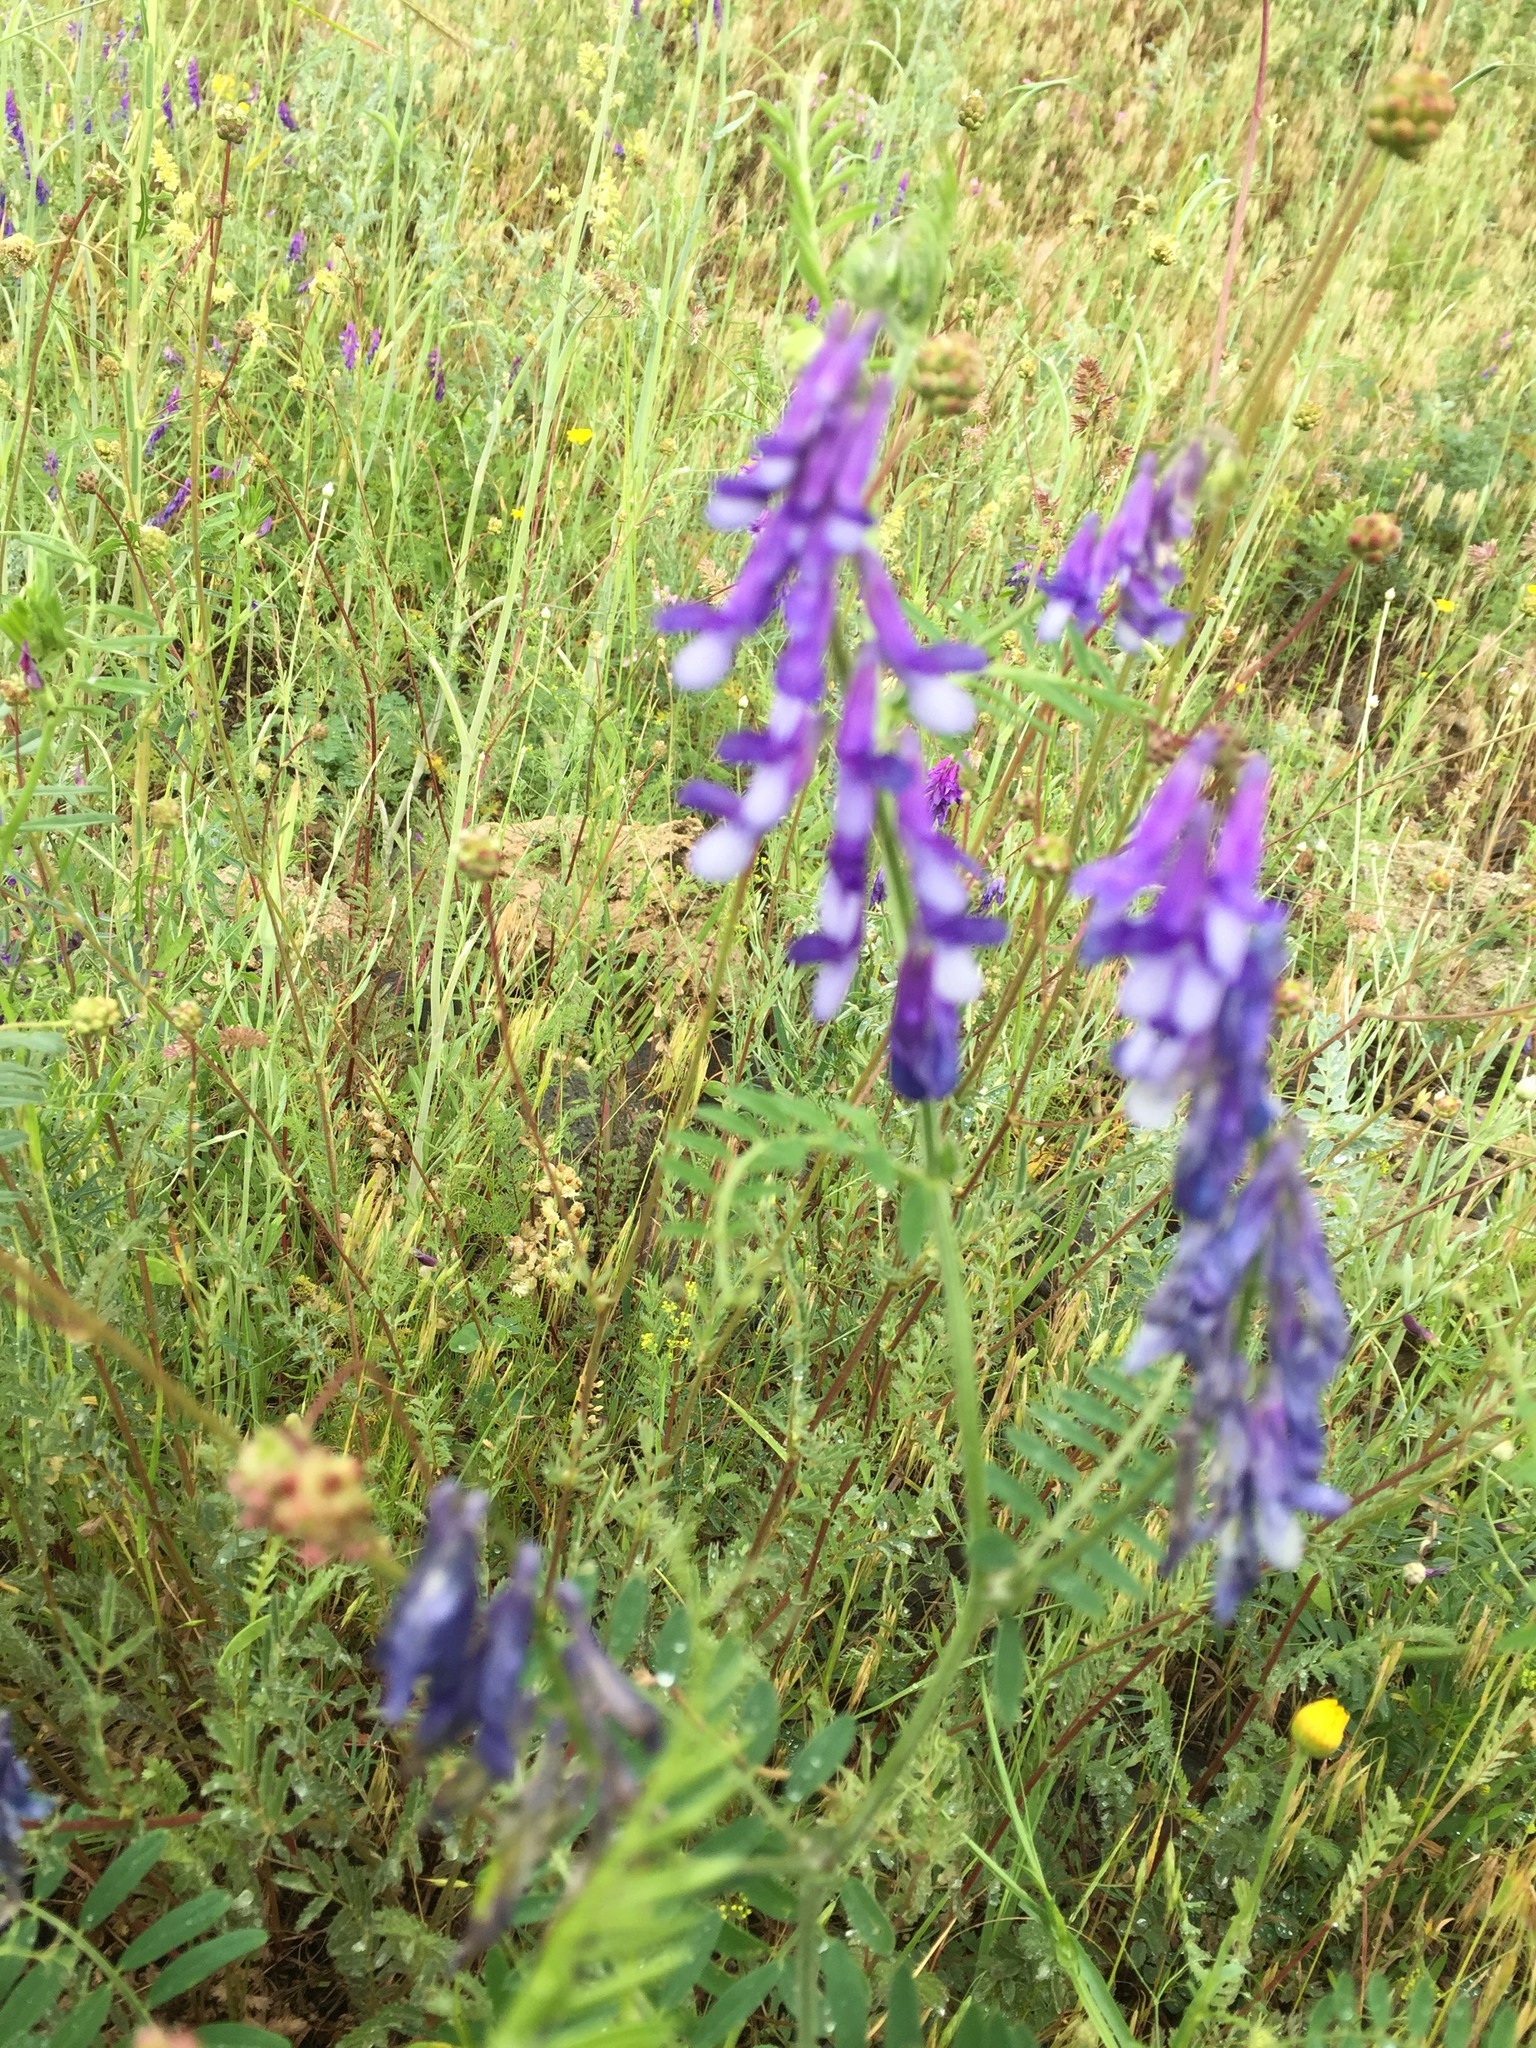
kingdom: Plantae
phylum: Tracheophyta
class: Magnoliopsida
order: Fabales
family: Fabaceae
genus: Vicia
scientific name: Vicia villosa
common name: Fodder vetch
